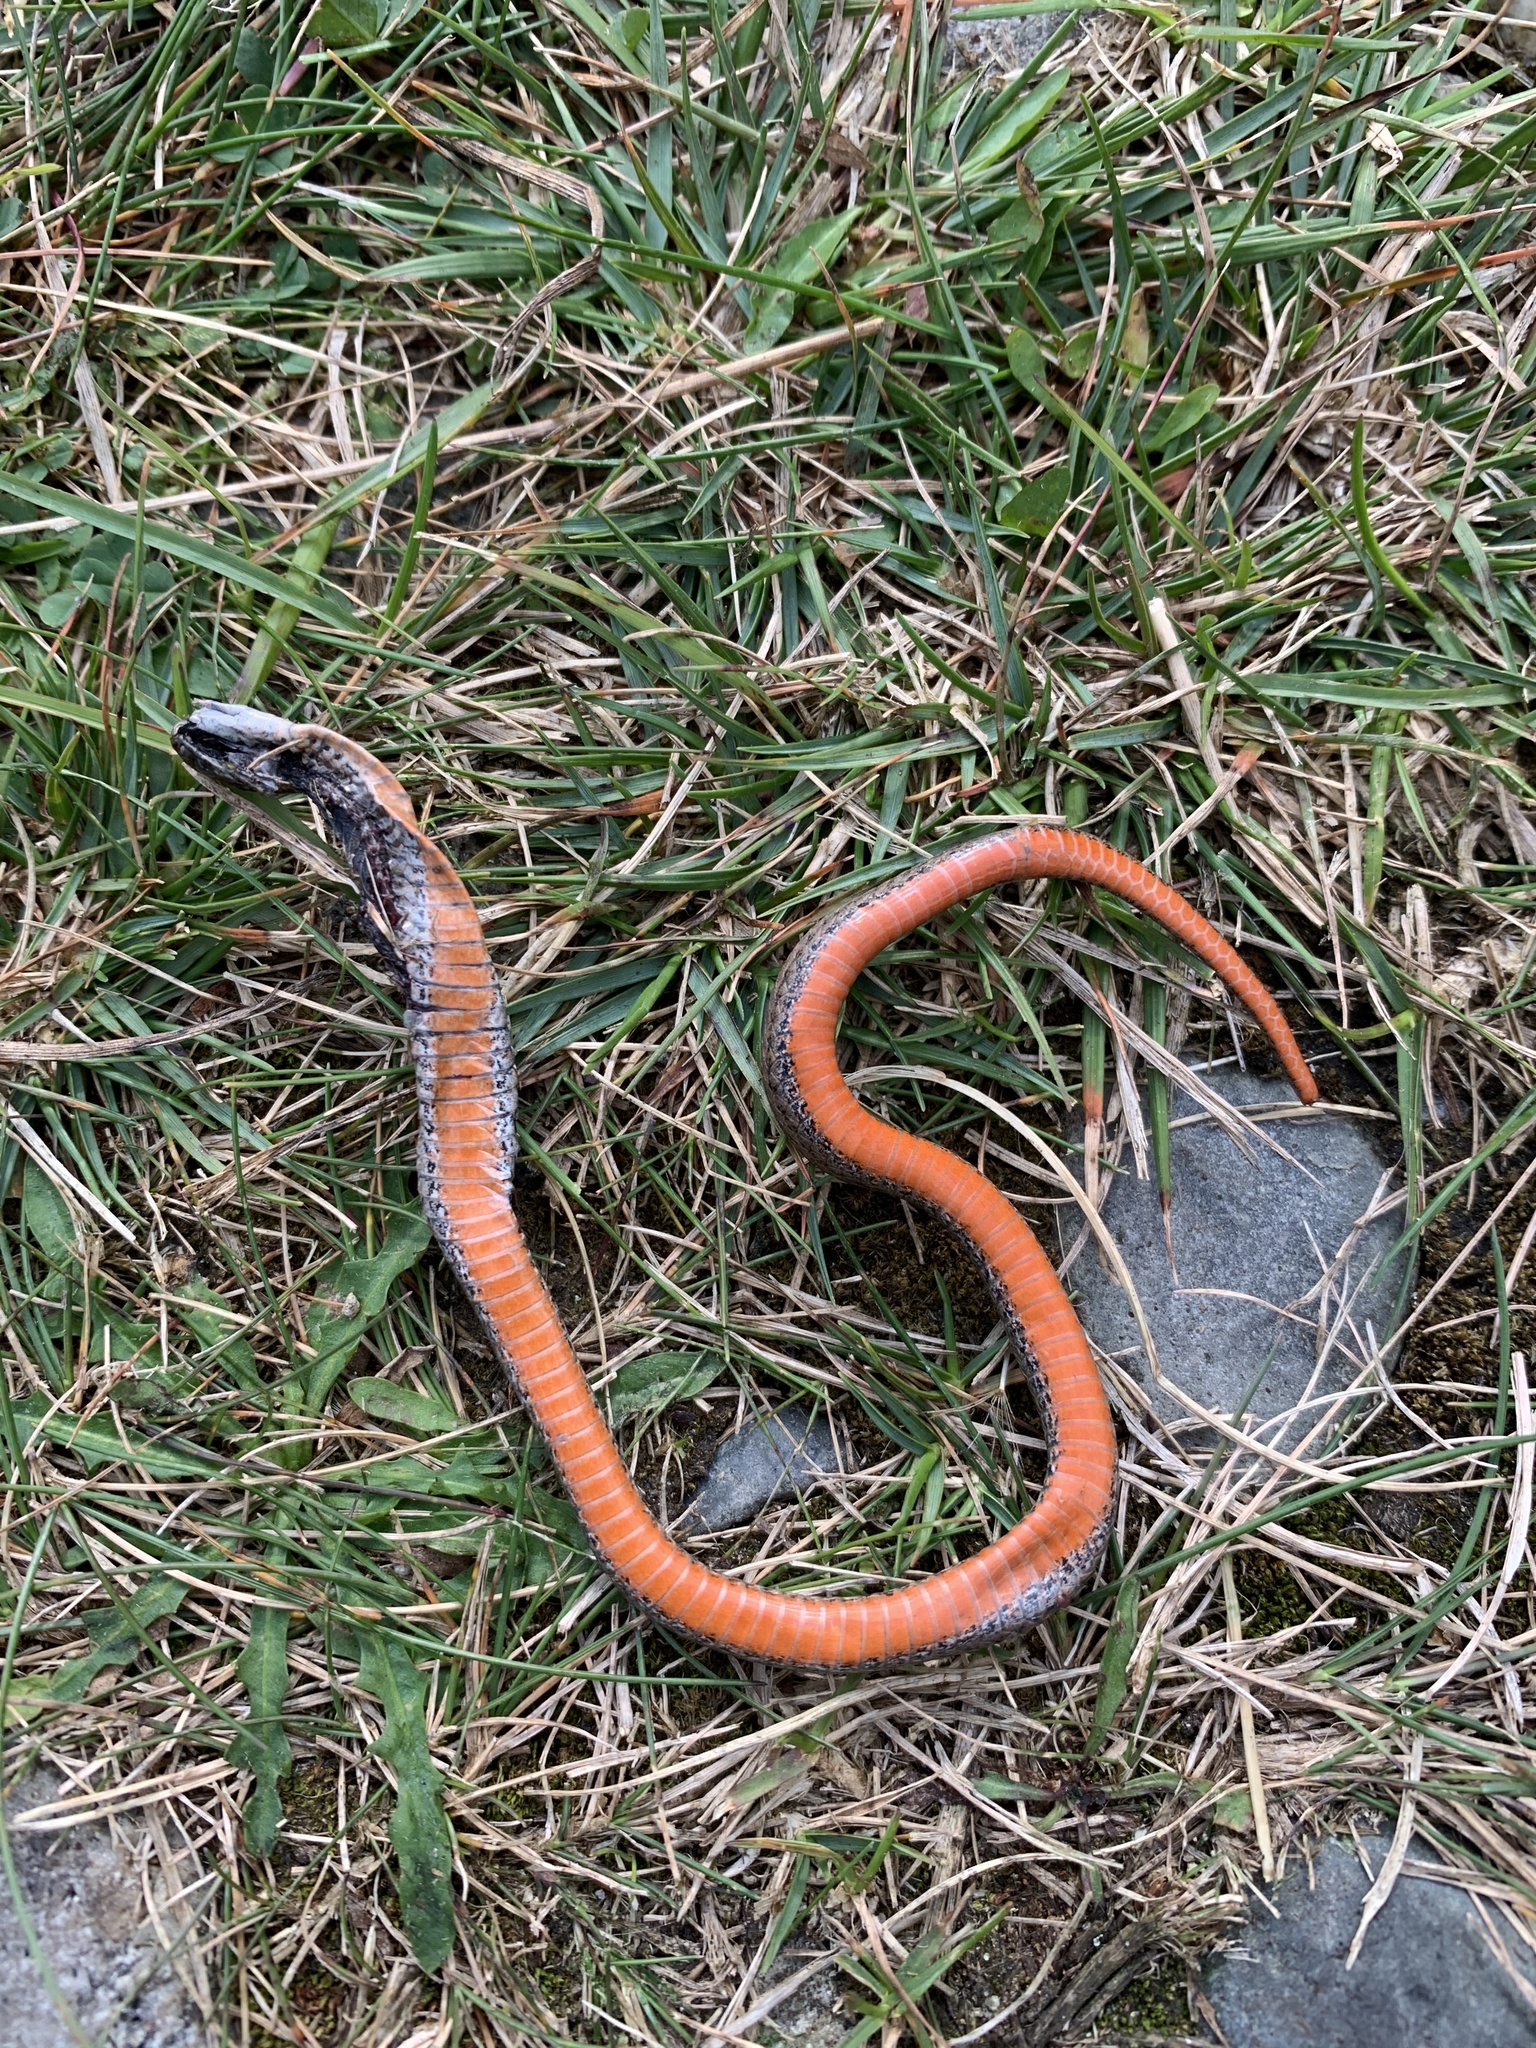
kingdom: Animalia
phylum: Chordata
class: Squamata
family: Colubridae
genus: Storeria
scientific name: Storeria occipitomaculata
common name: Redbelly snake
